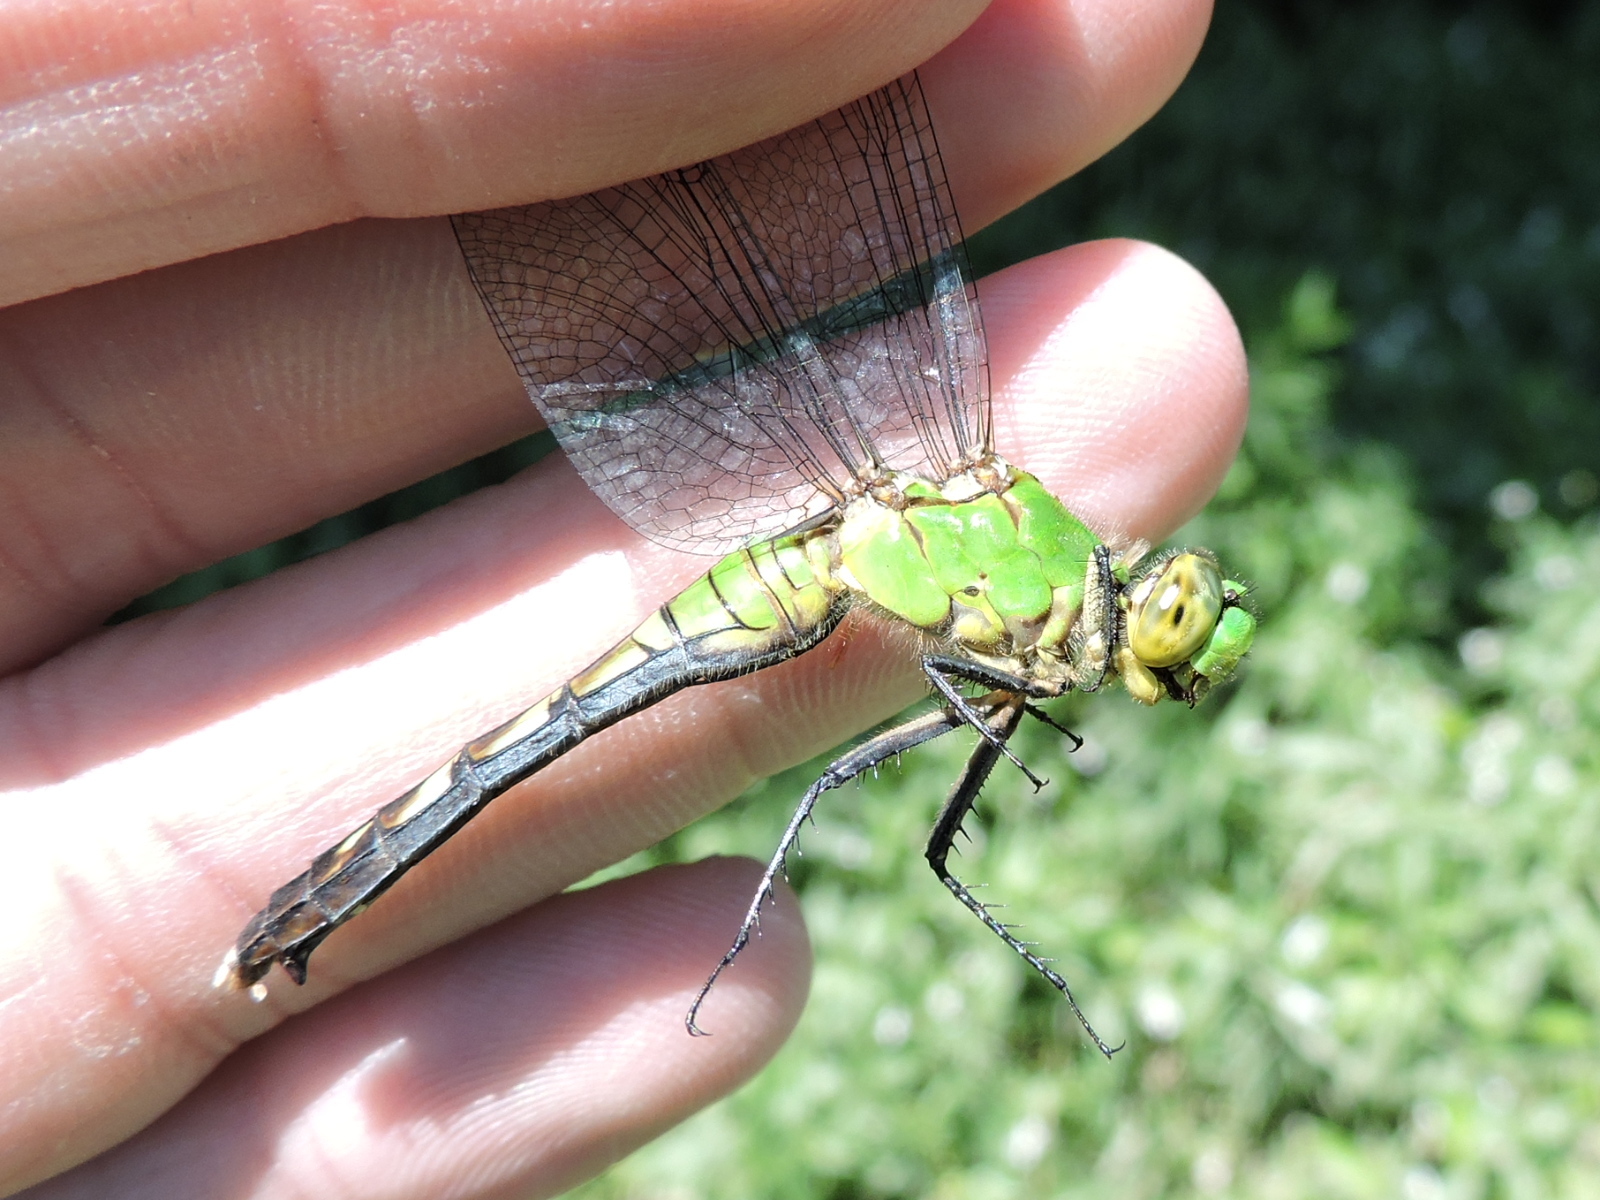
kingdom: Animalia
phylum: Arthropoda
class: Insecta
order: Odonata
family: Libellulidae
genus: Erythemis
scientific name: Erythemis simplicicollis
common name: Eastern pondhawk
